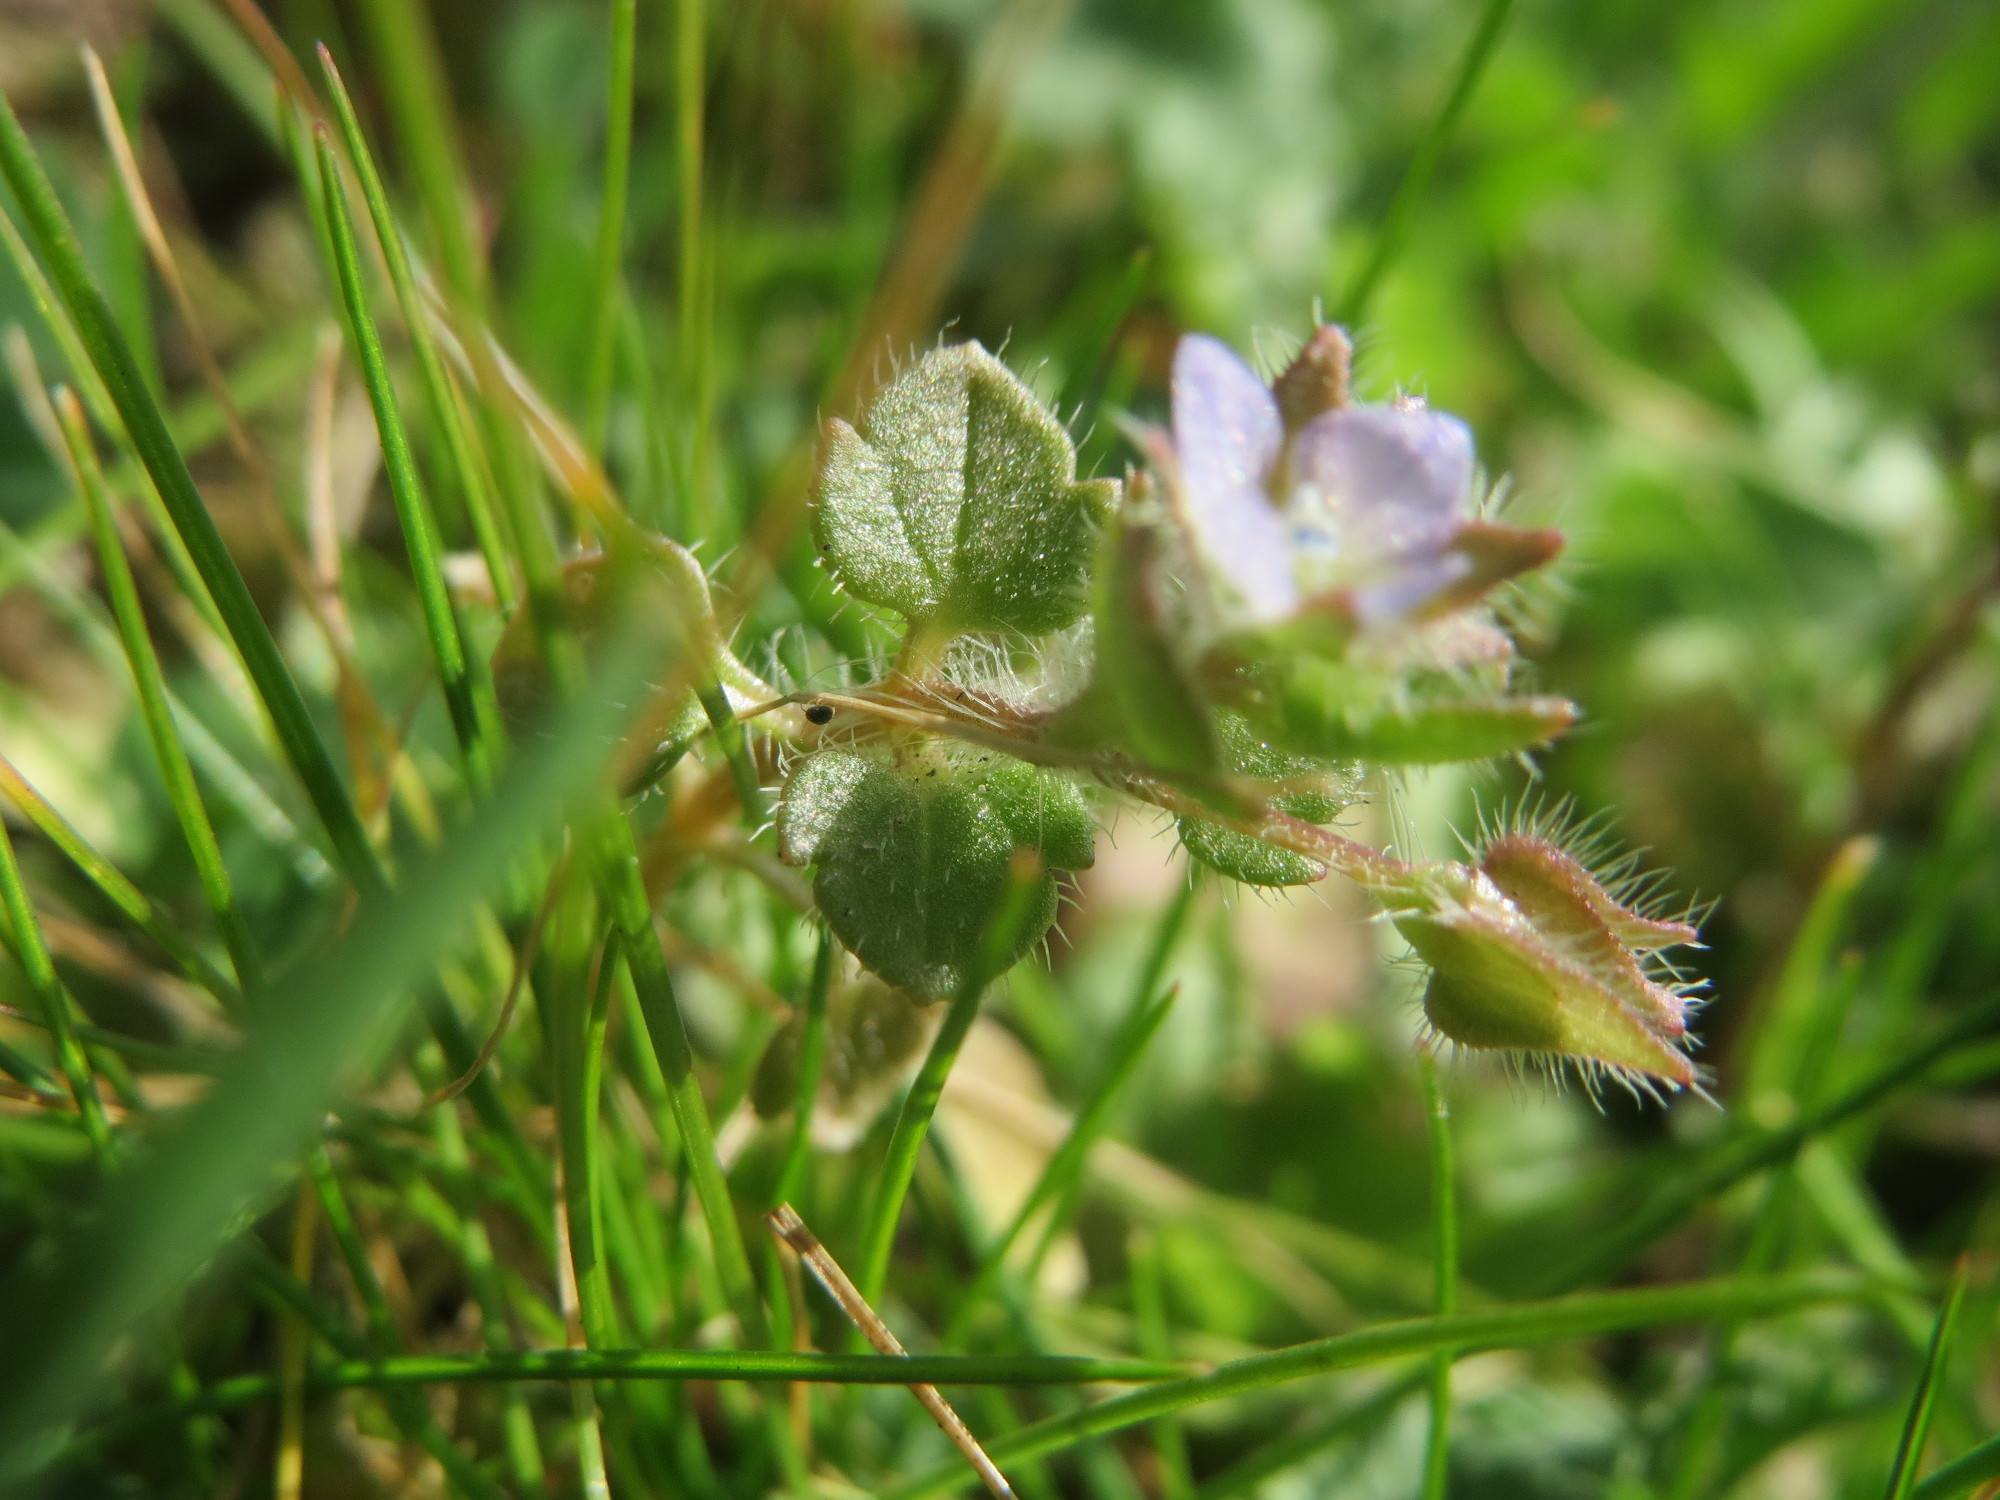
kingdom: Plantae
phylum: Tracheophyta
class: Magnoliopsida
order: Lamiales
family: Plantaginaceae
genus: Veronica
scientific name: Veronica hederifolia
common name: Ivy-leaved speedwell
